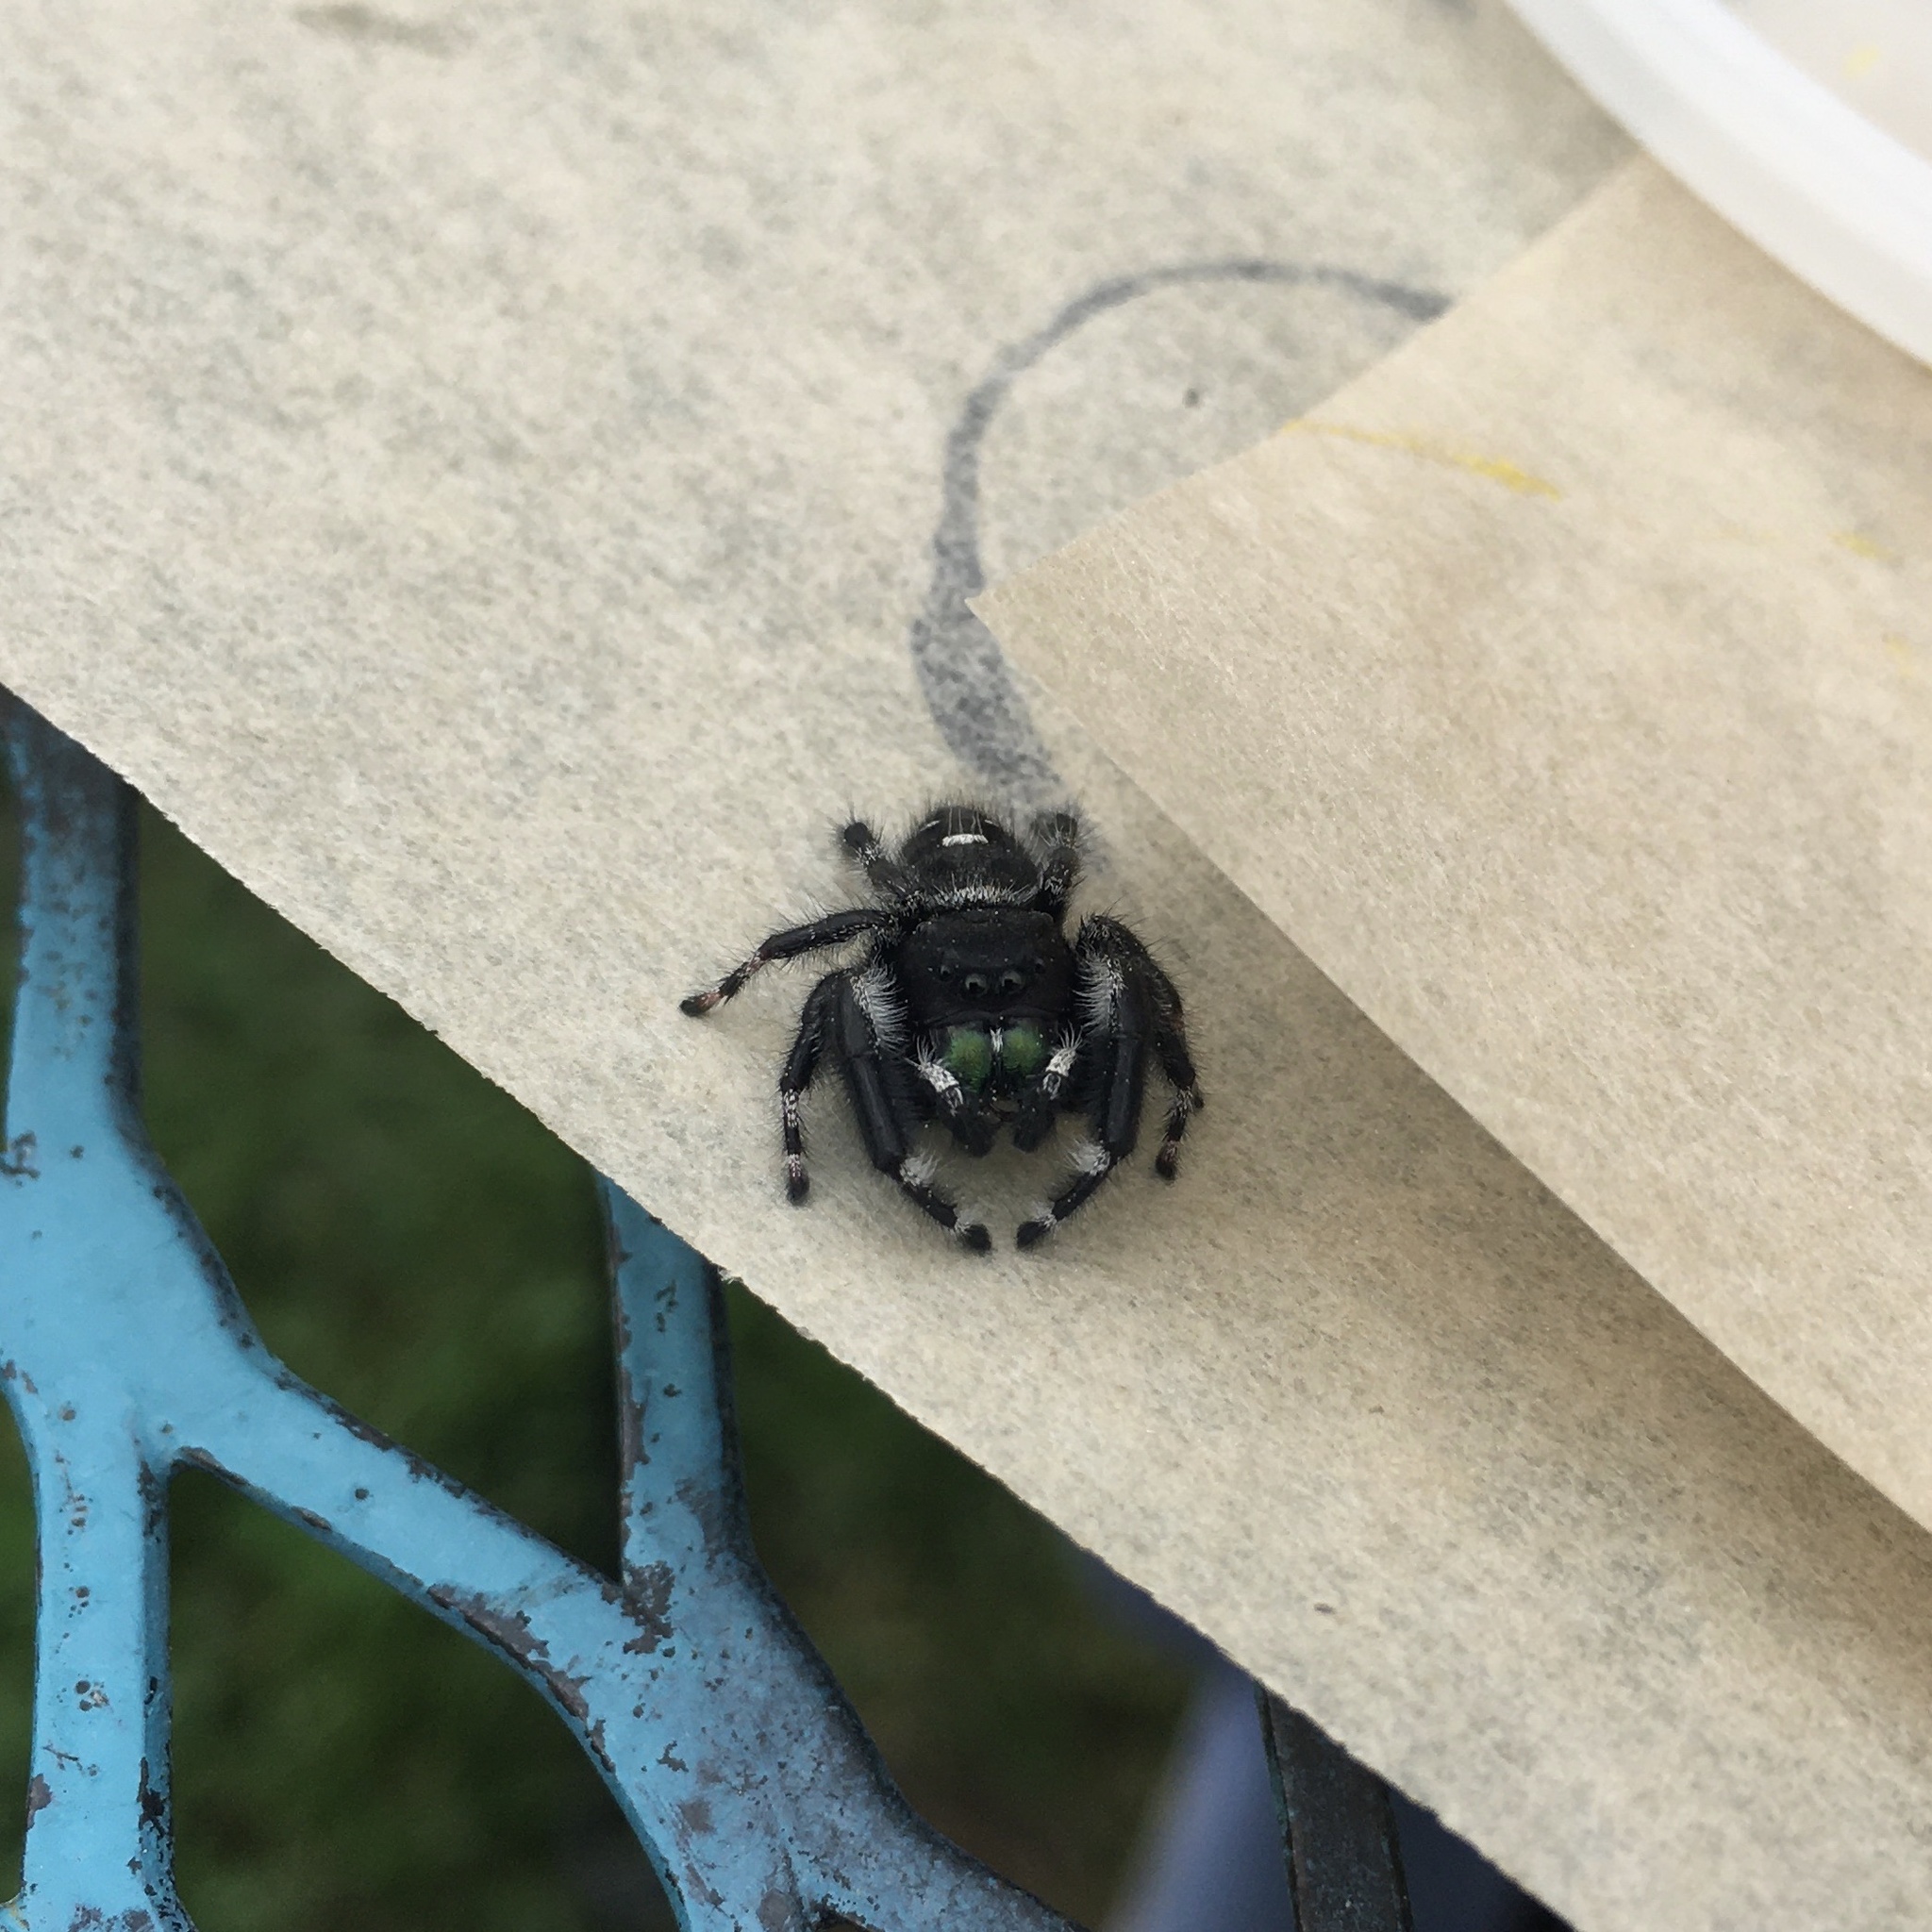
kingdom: Animalia
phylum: Arthropoda
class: Arachnida
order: Araneae
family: Salticidae
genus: Phidippus
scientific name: Phidippus audax
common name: Bold jumper
